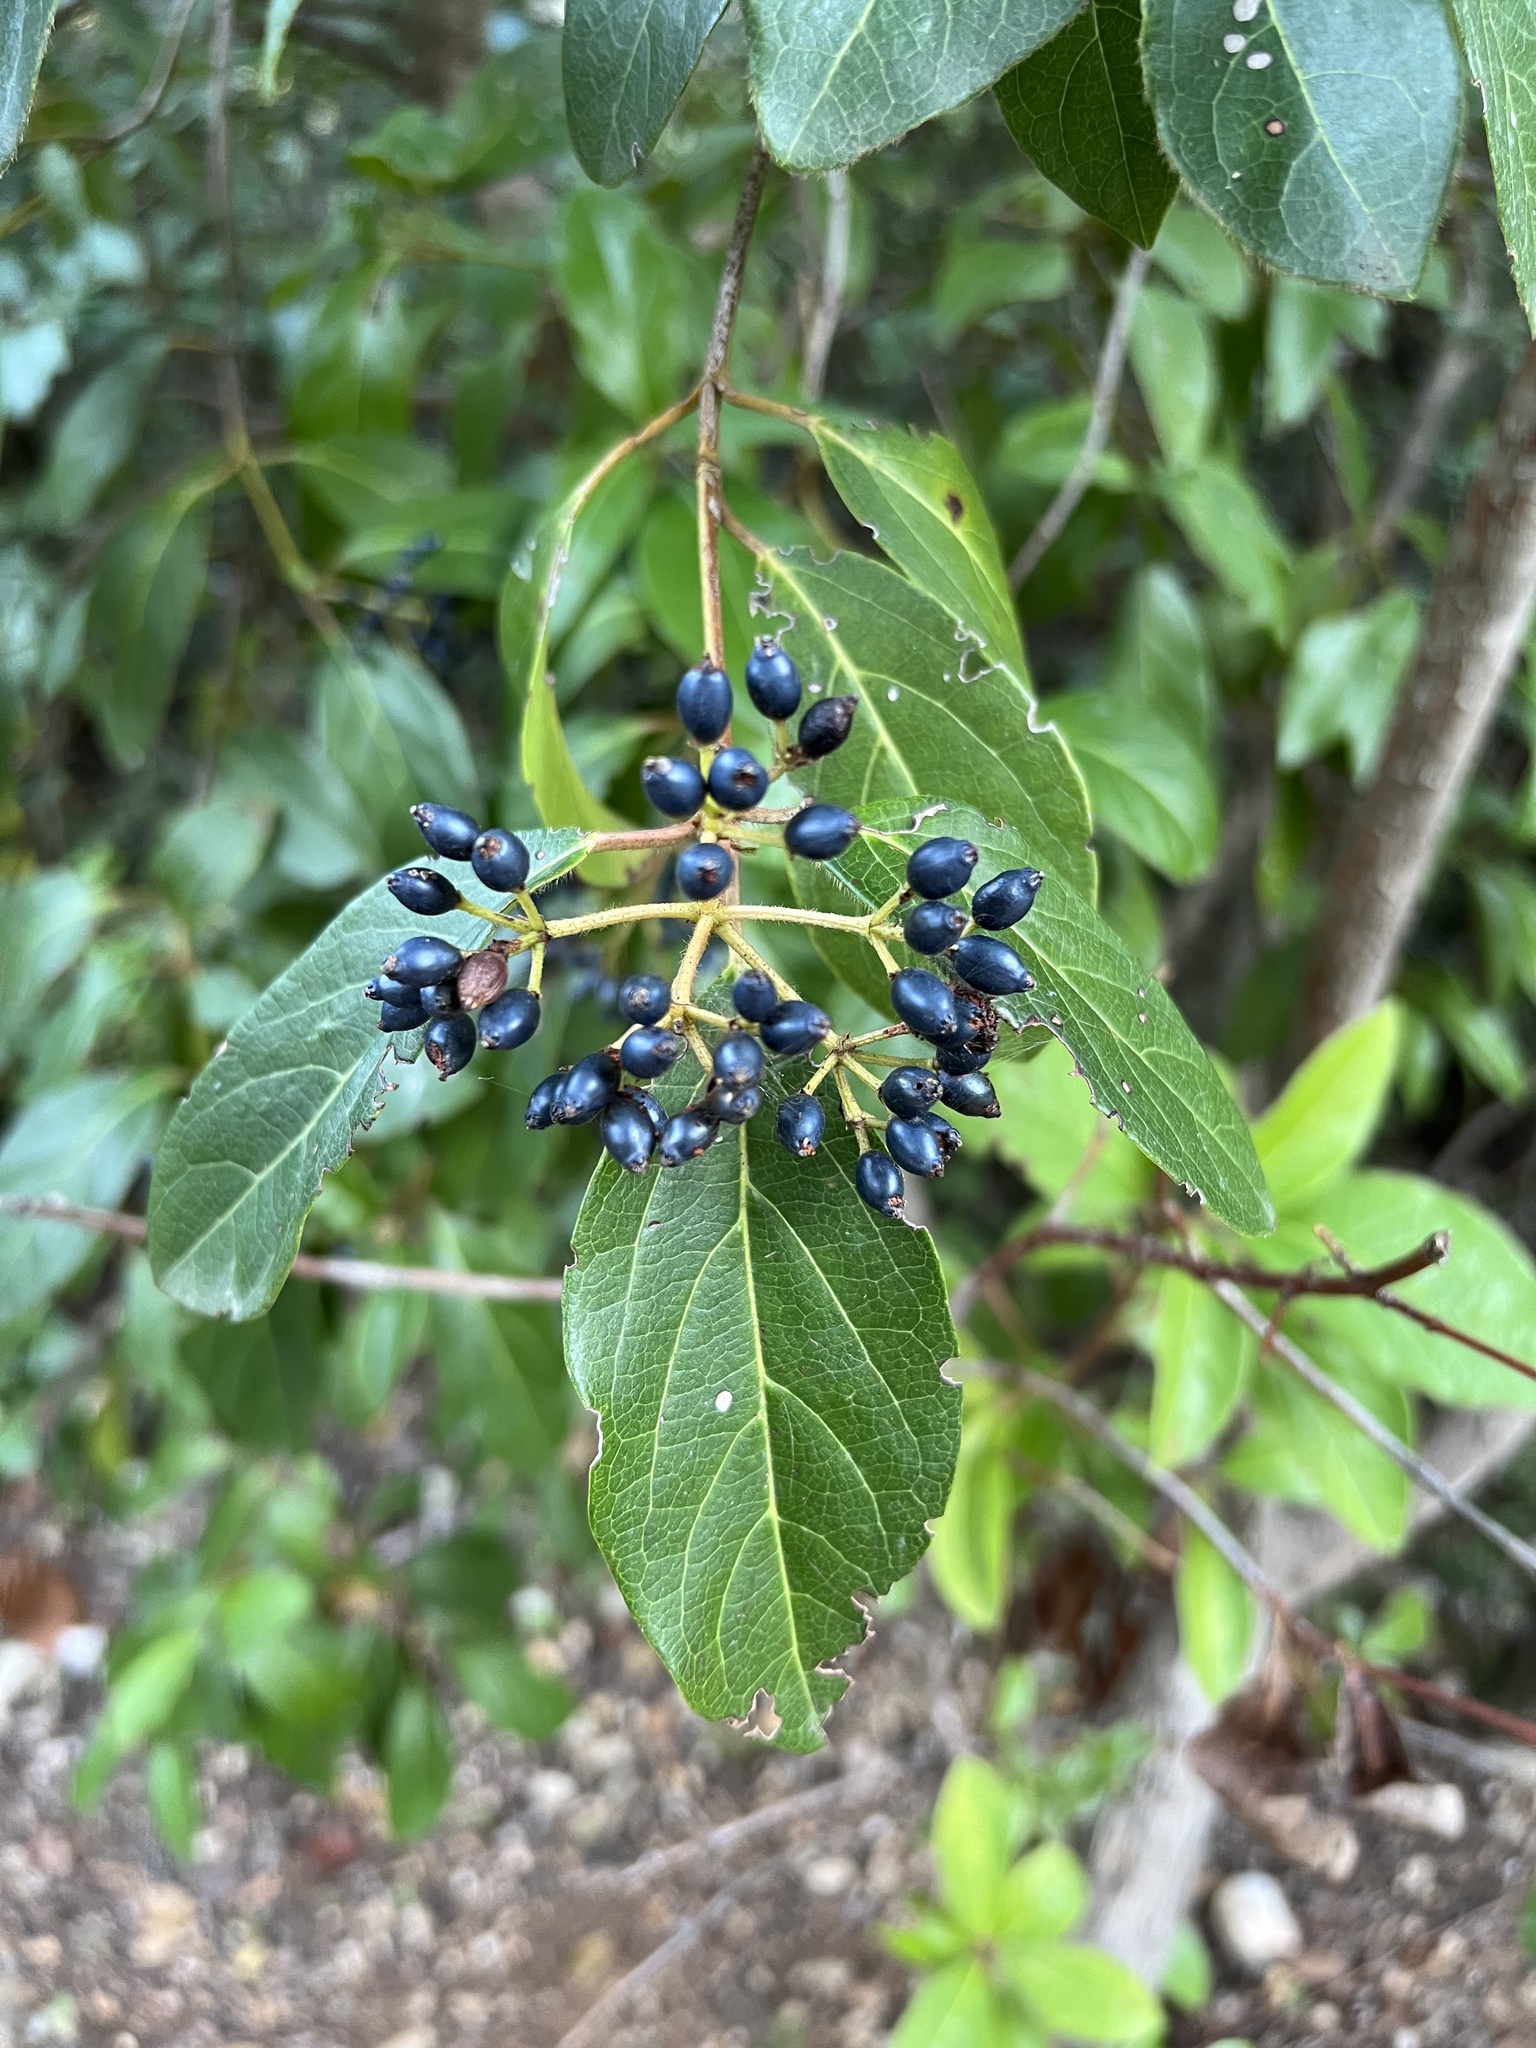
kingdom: Plantae
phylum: Tracheophyta
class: Magnoliopsida
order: Dipsacales
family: Viburnaceae
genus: Viburnum
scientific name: Viburnum tinus
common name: Laurustinus
